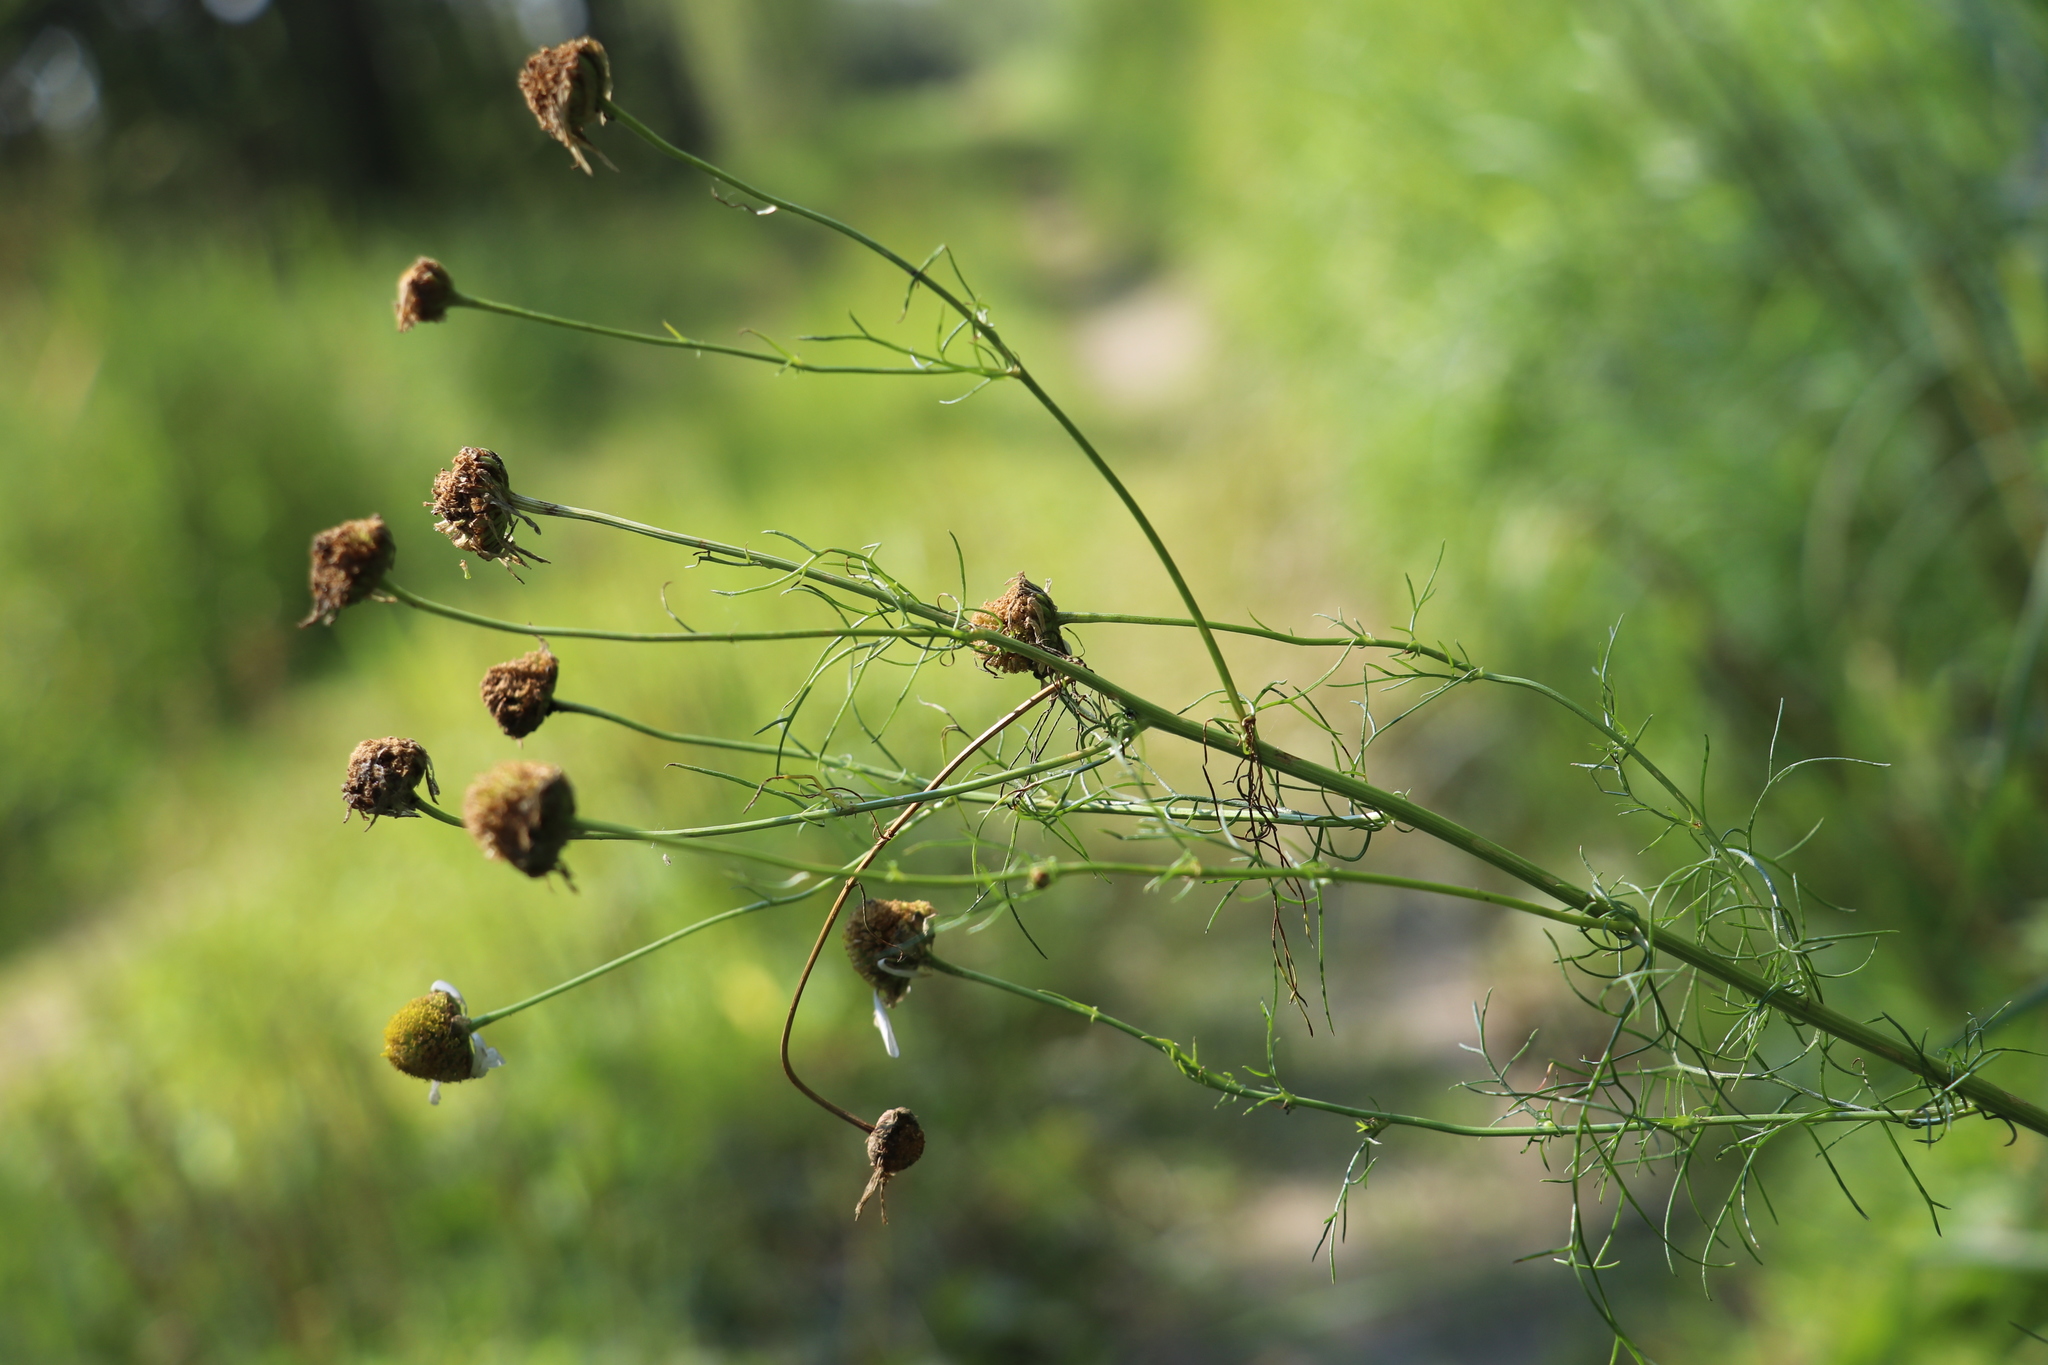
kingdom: Plantae
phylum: Tracheophyta
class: Magnoliopsida
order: Asterales
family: Asteraceae
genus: Tripleurospermum
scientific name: Tripleurospermum inodorum
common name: Scentless mayweed
